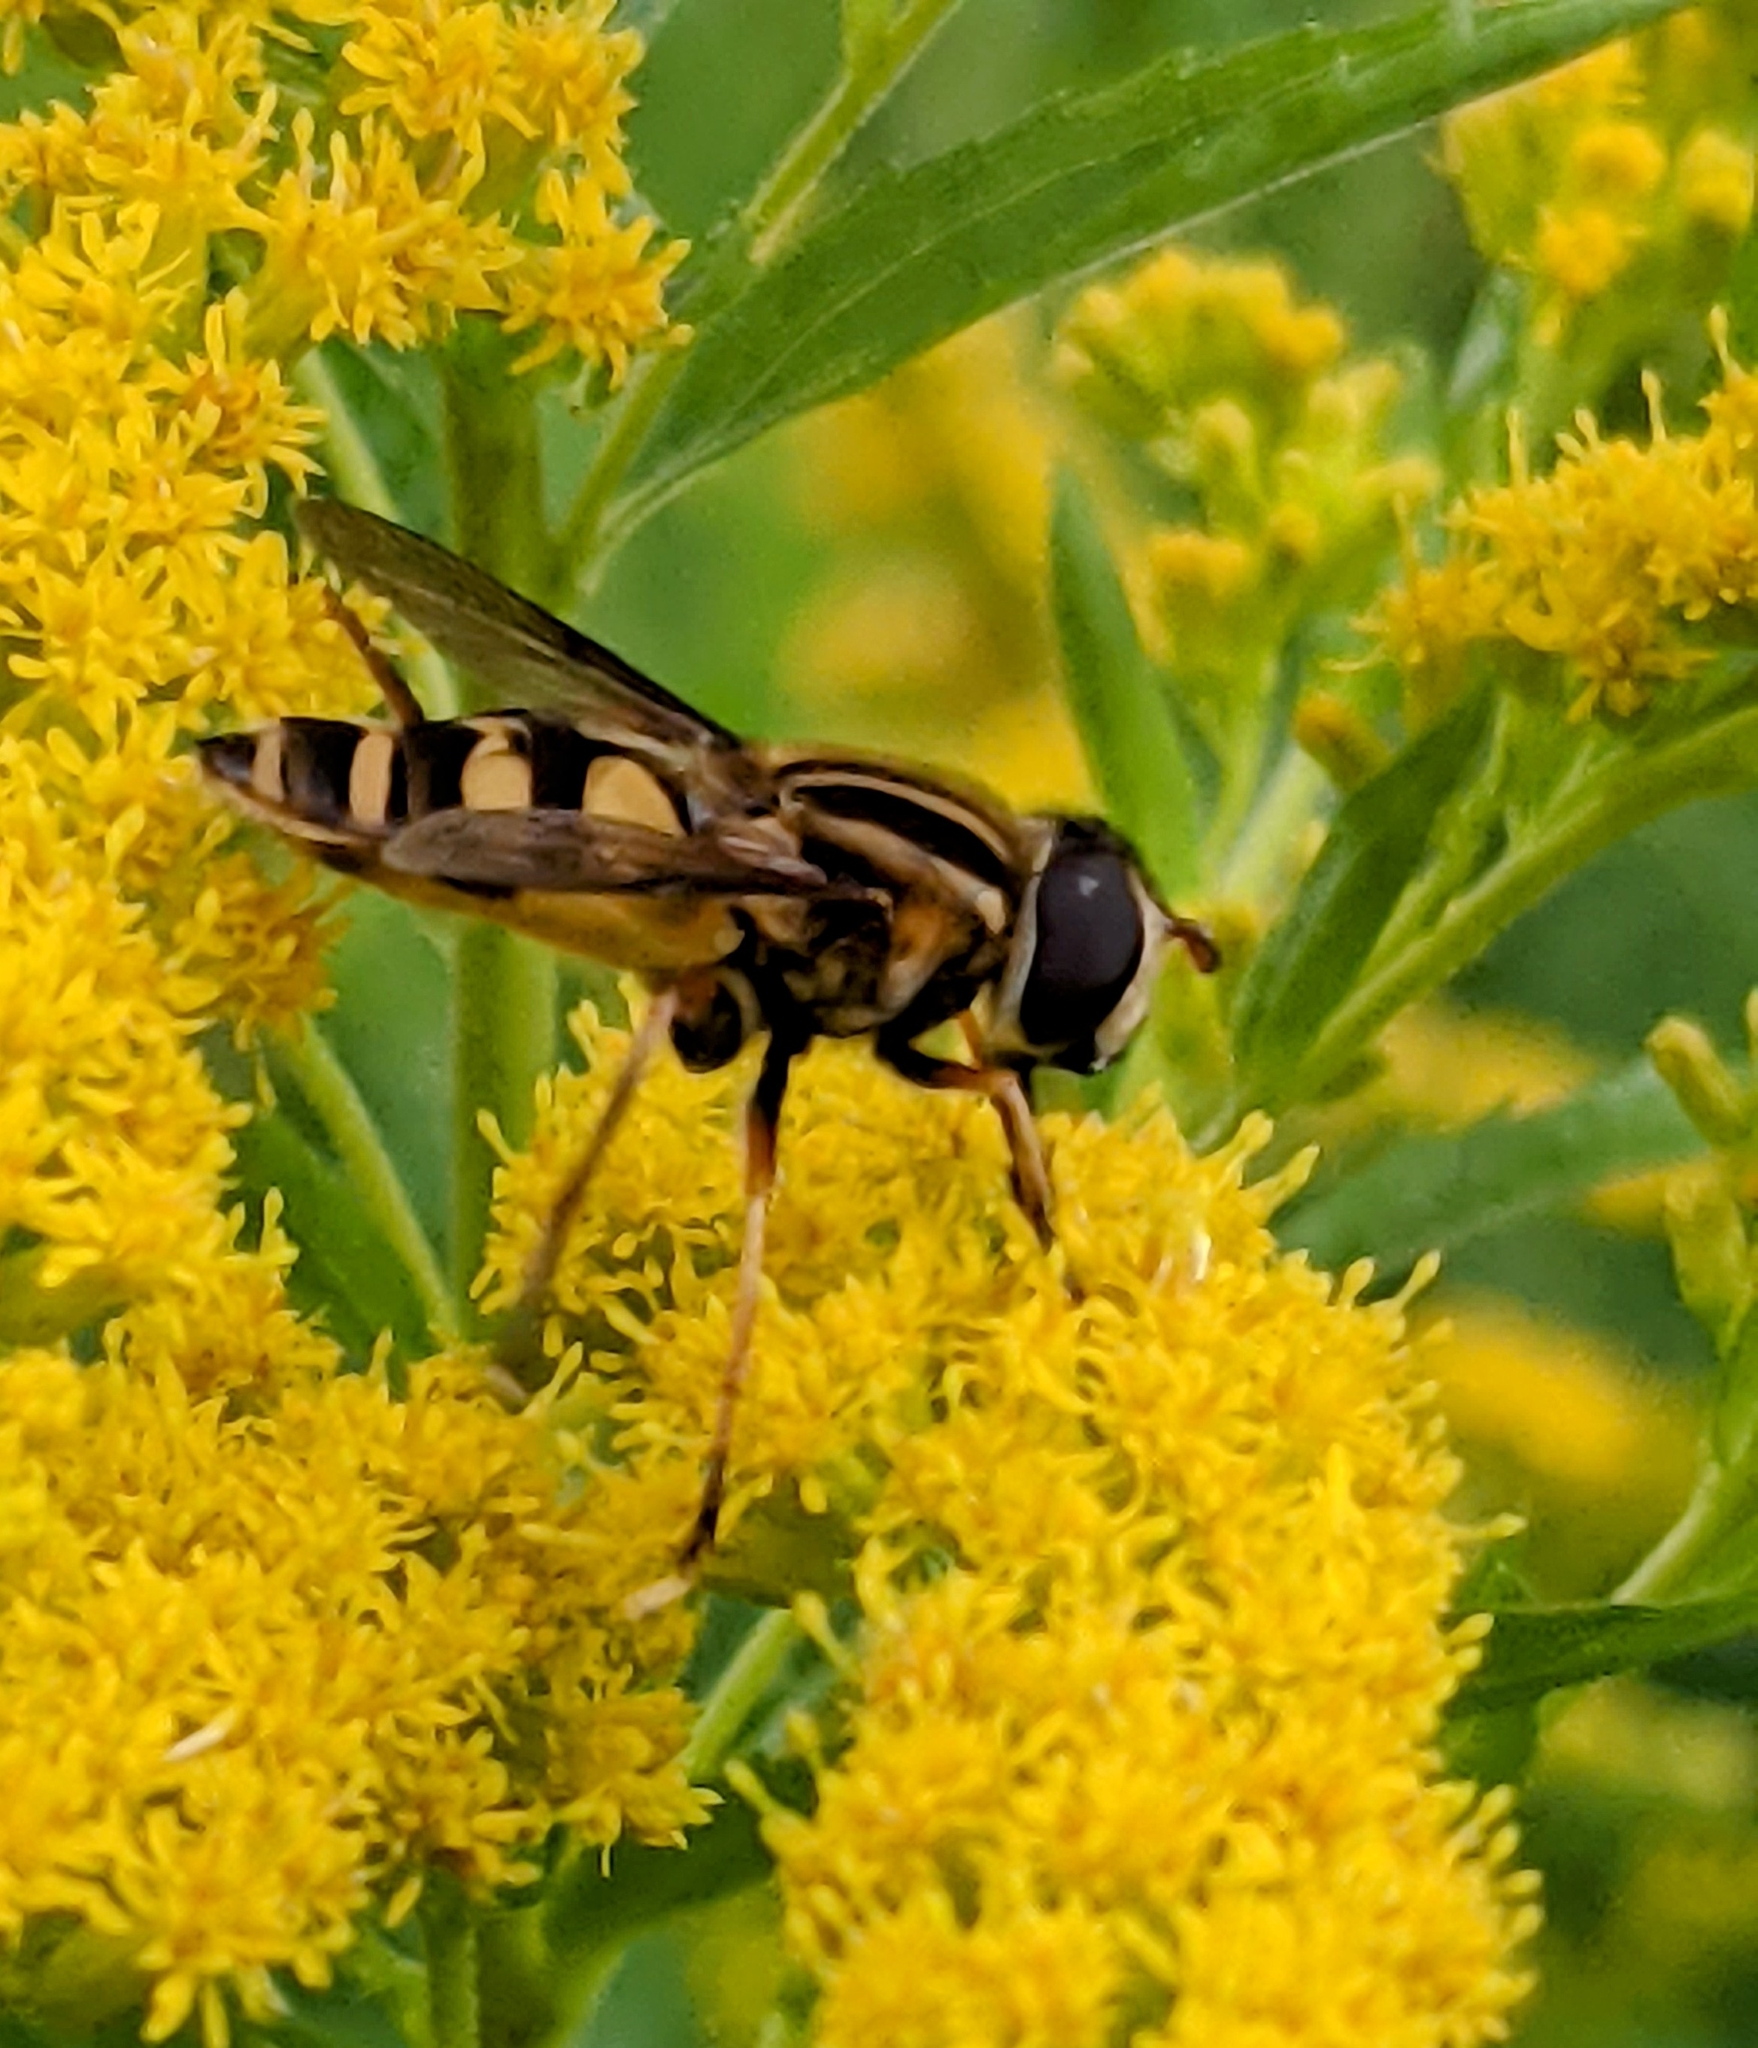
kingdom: Animalia
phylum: Arthropoda
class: Insecta
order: Diptera
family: Syrphidae
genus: Helophilus
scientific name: Helophilus fasciatus
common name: Narrow-headed marsh fly
